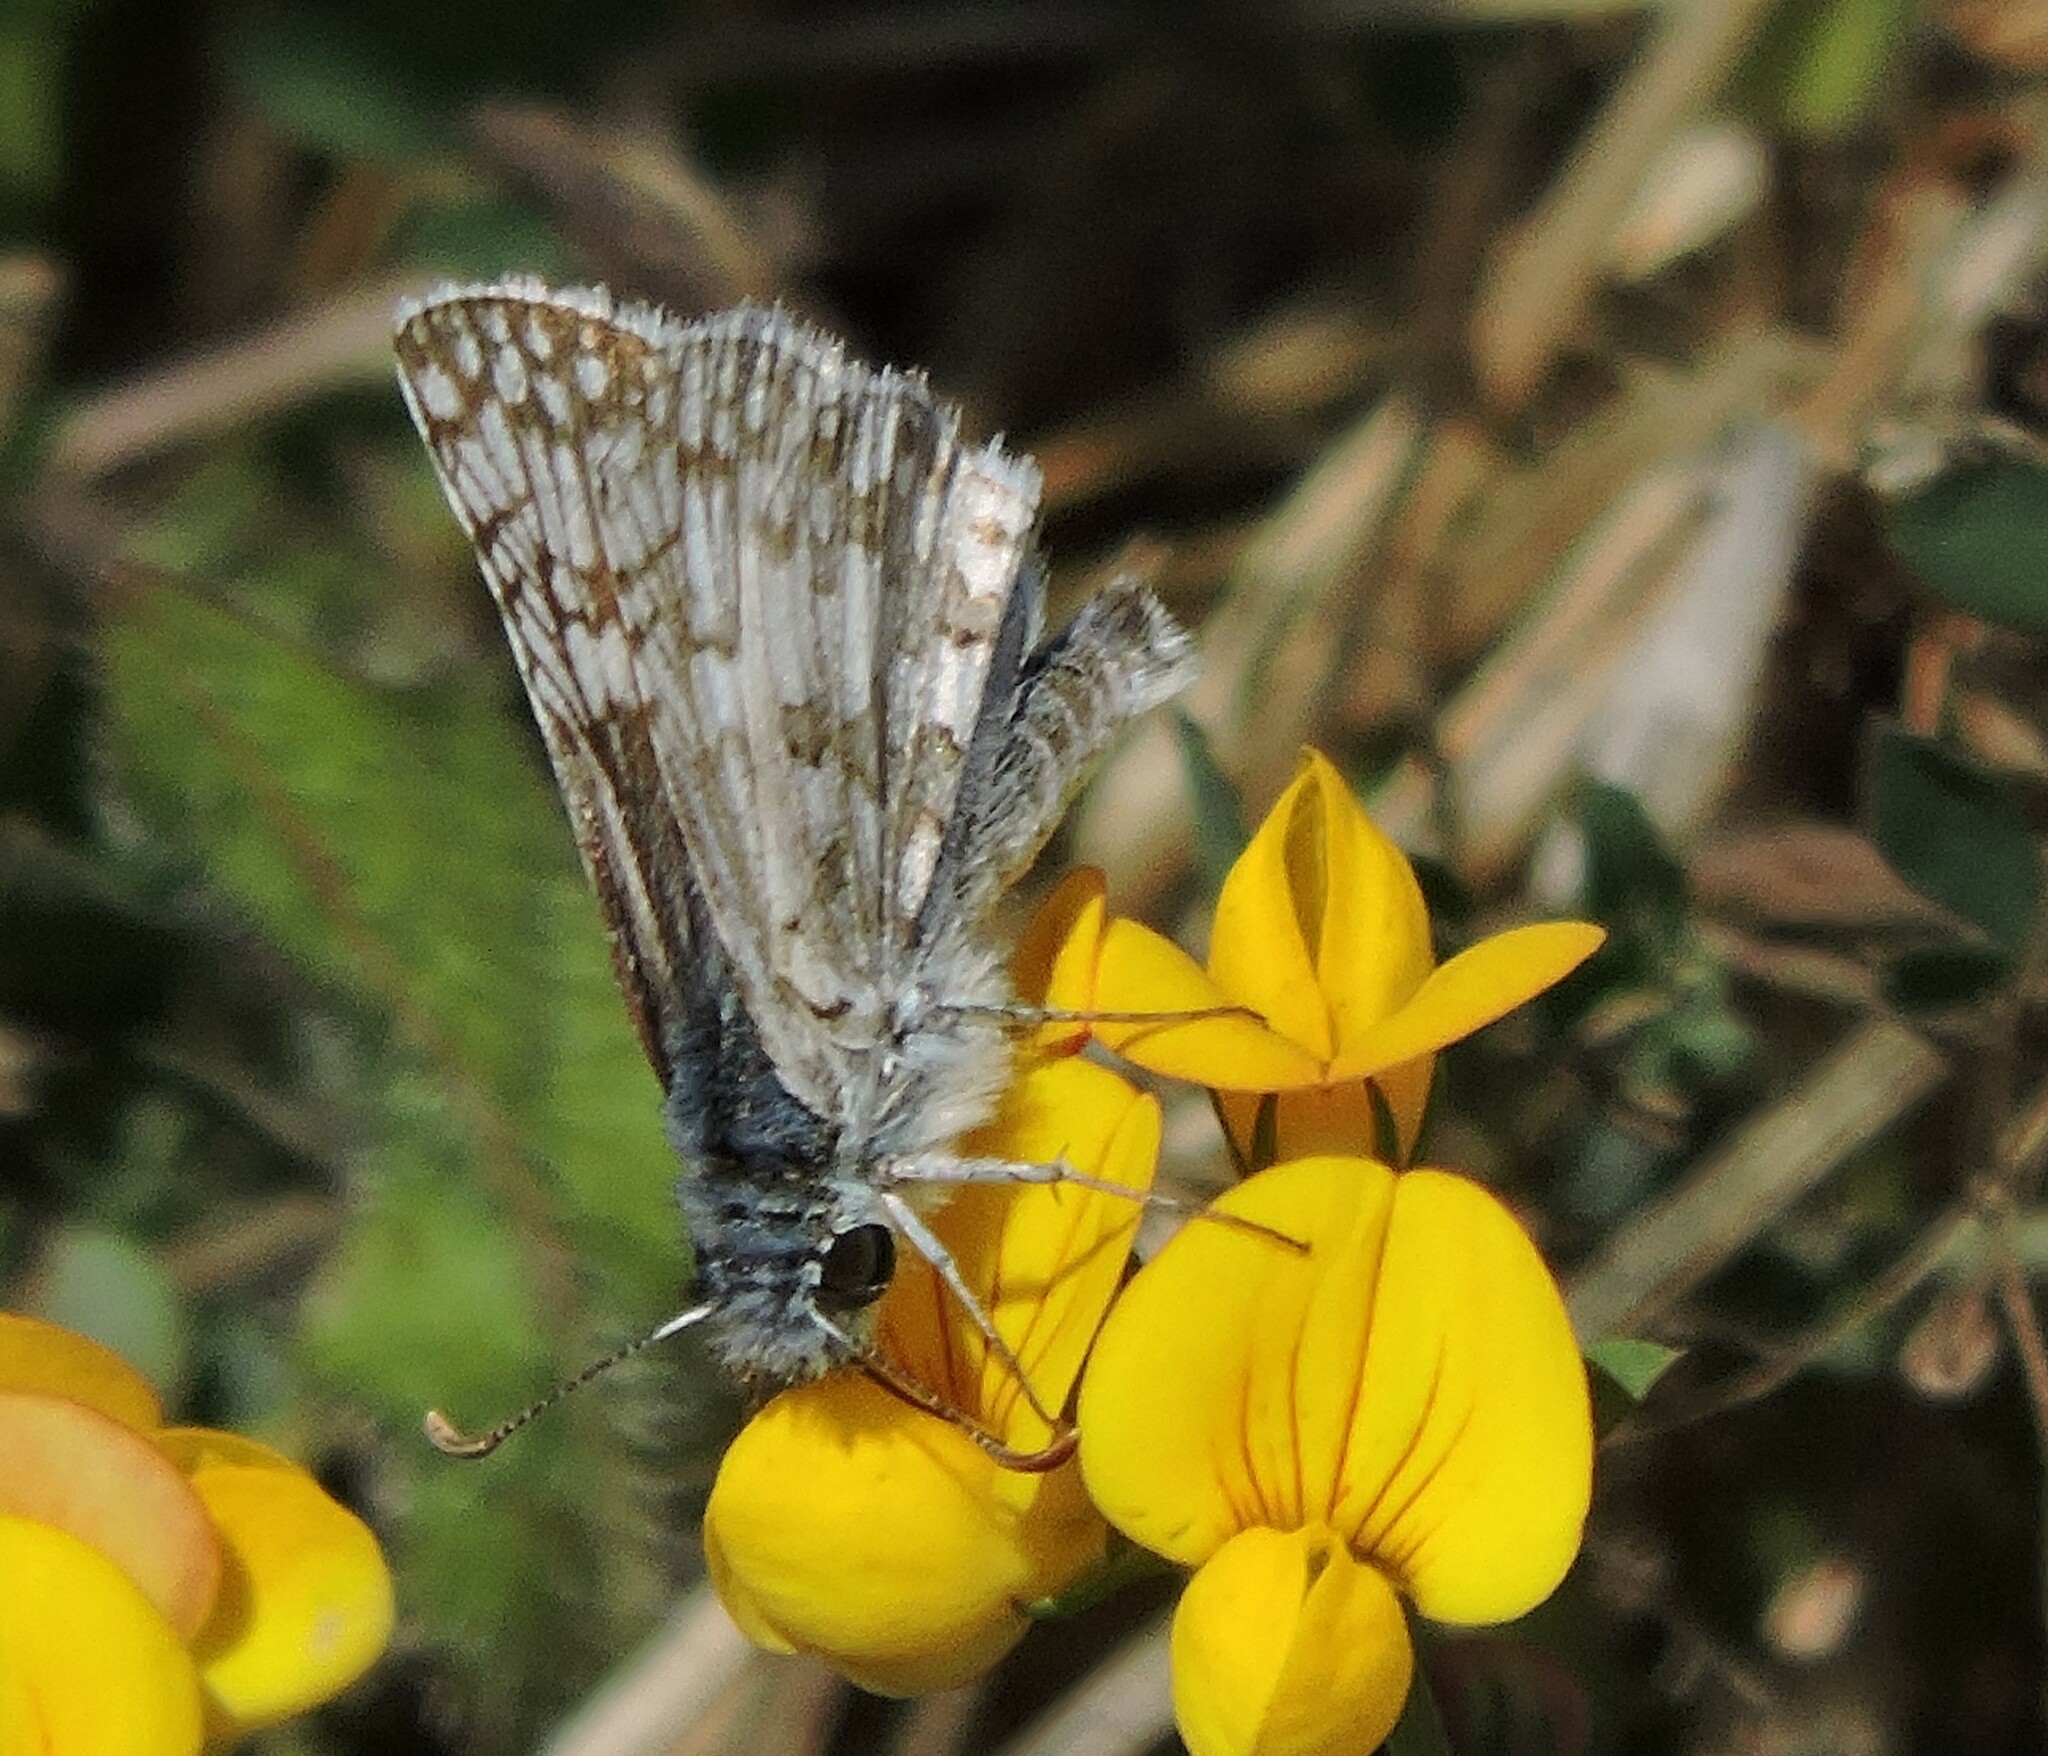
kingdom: Animalia
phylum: Arthropoda
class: Insecta
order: Lepidoptera
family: Hesperiidae
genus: Burnsius
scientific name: Burnsius communis
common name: Common checkered-skipper
